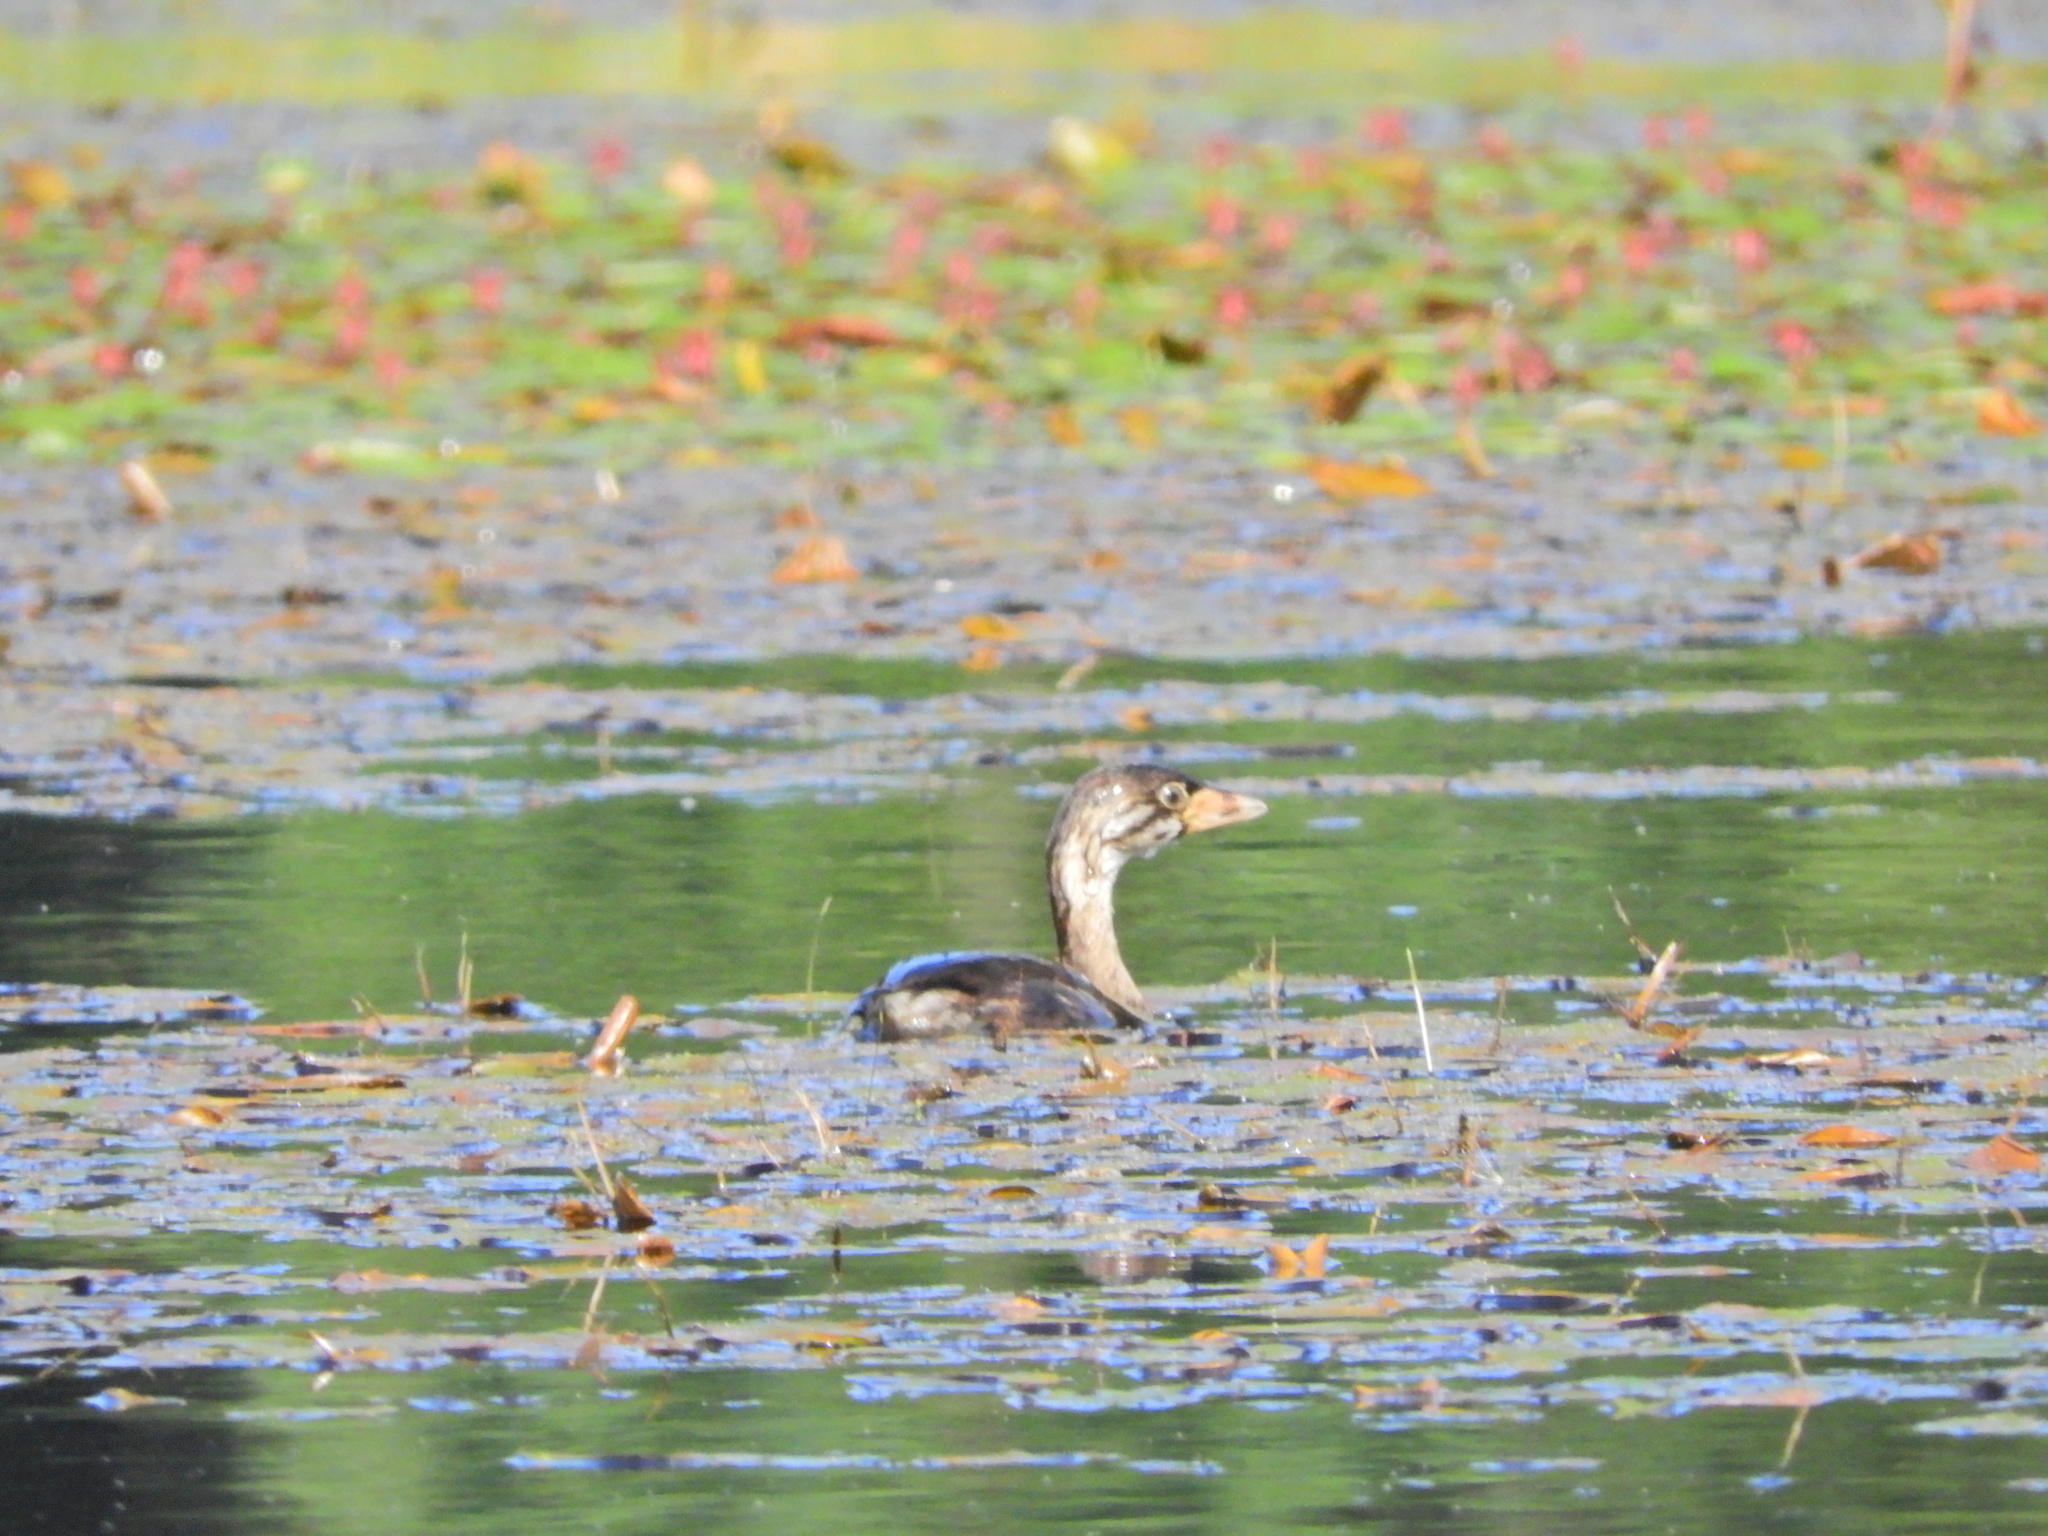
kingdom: Animalia
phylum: Chordata
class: Aves
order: Podicipediformes
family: Podicipedidae
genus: Podilymbus
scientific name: Podilymbus podiceps
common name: Pied-billed grebe
